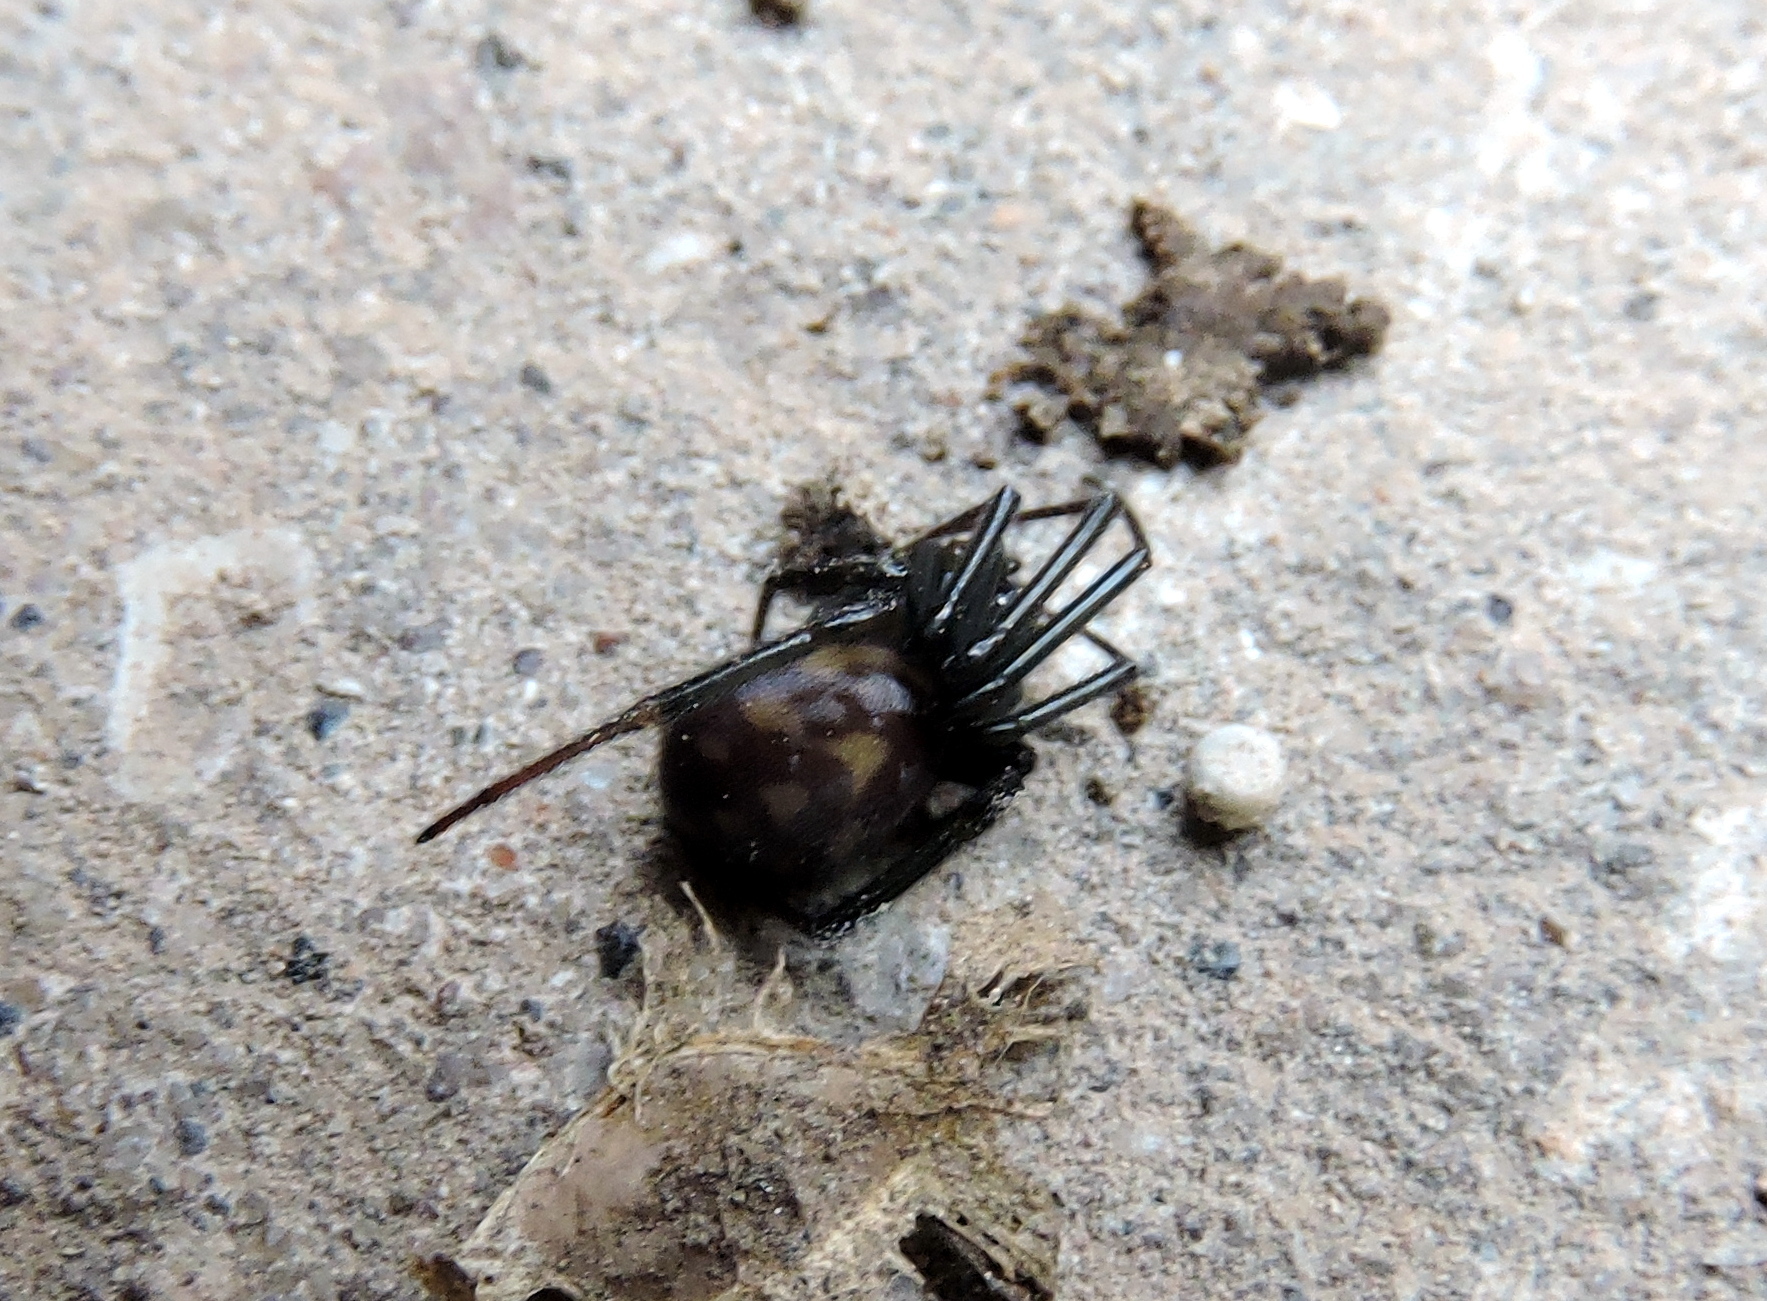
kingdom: Animalia
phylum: Arthropoda
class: Arachnida
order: Araneae
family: Theridiidae
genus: Steatoda
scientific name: Steatoda grossa
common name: False black widow
